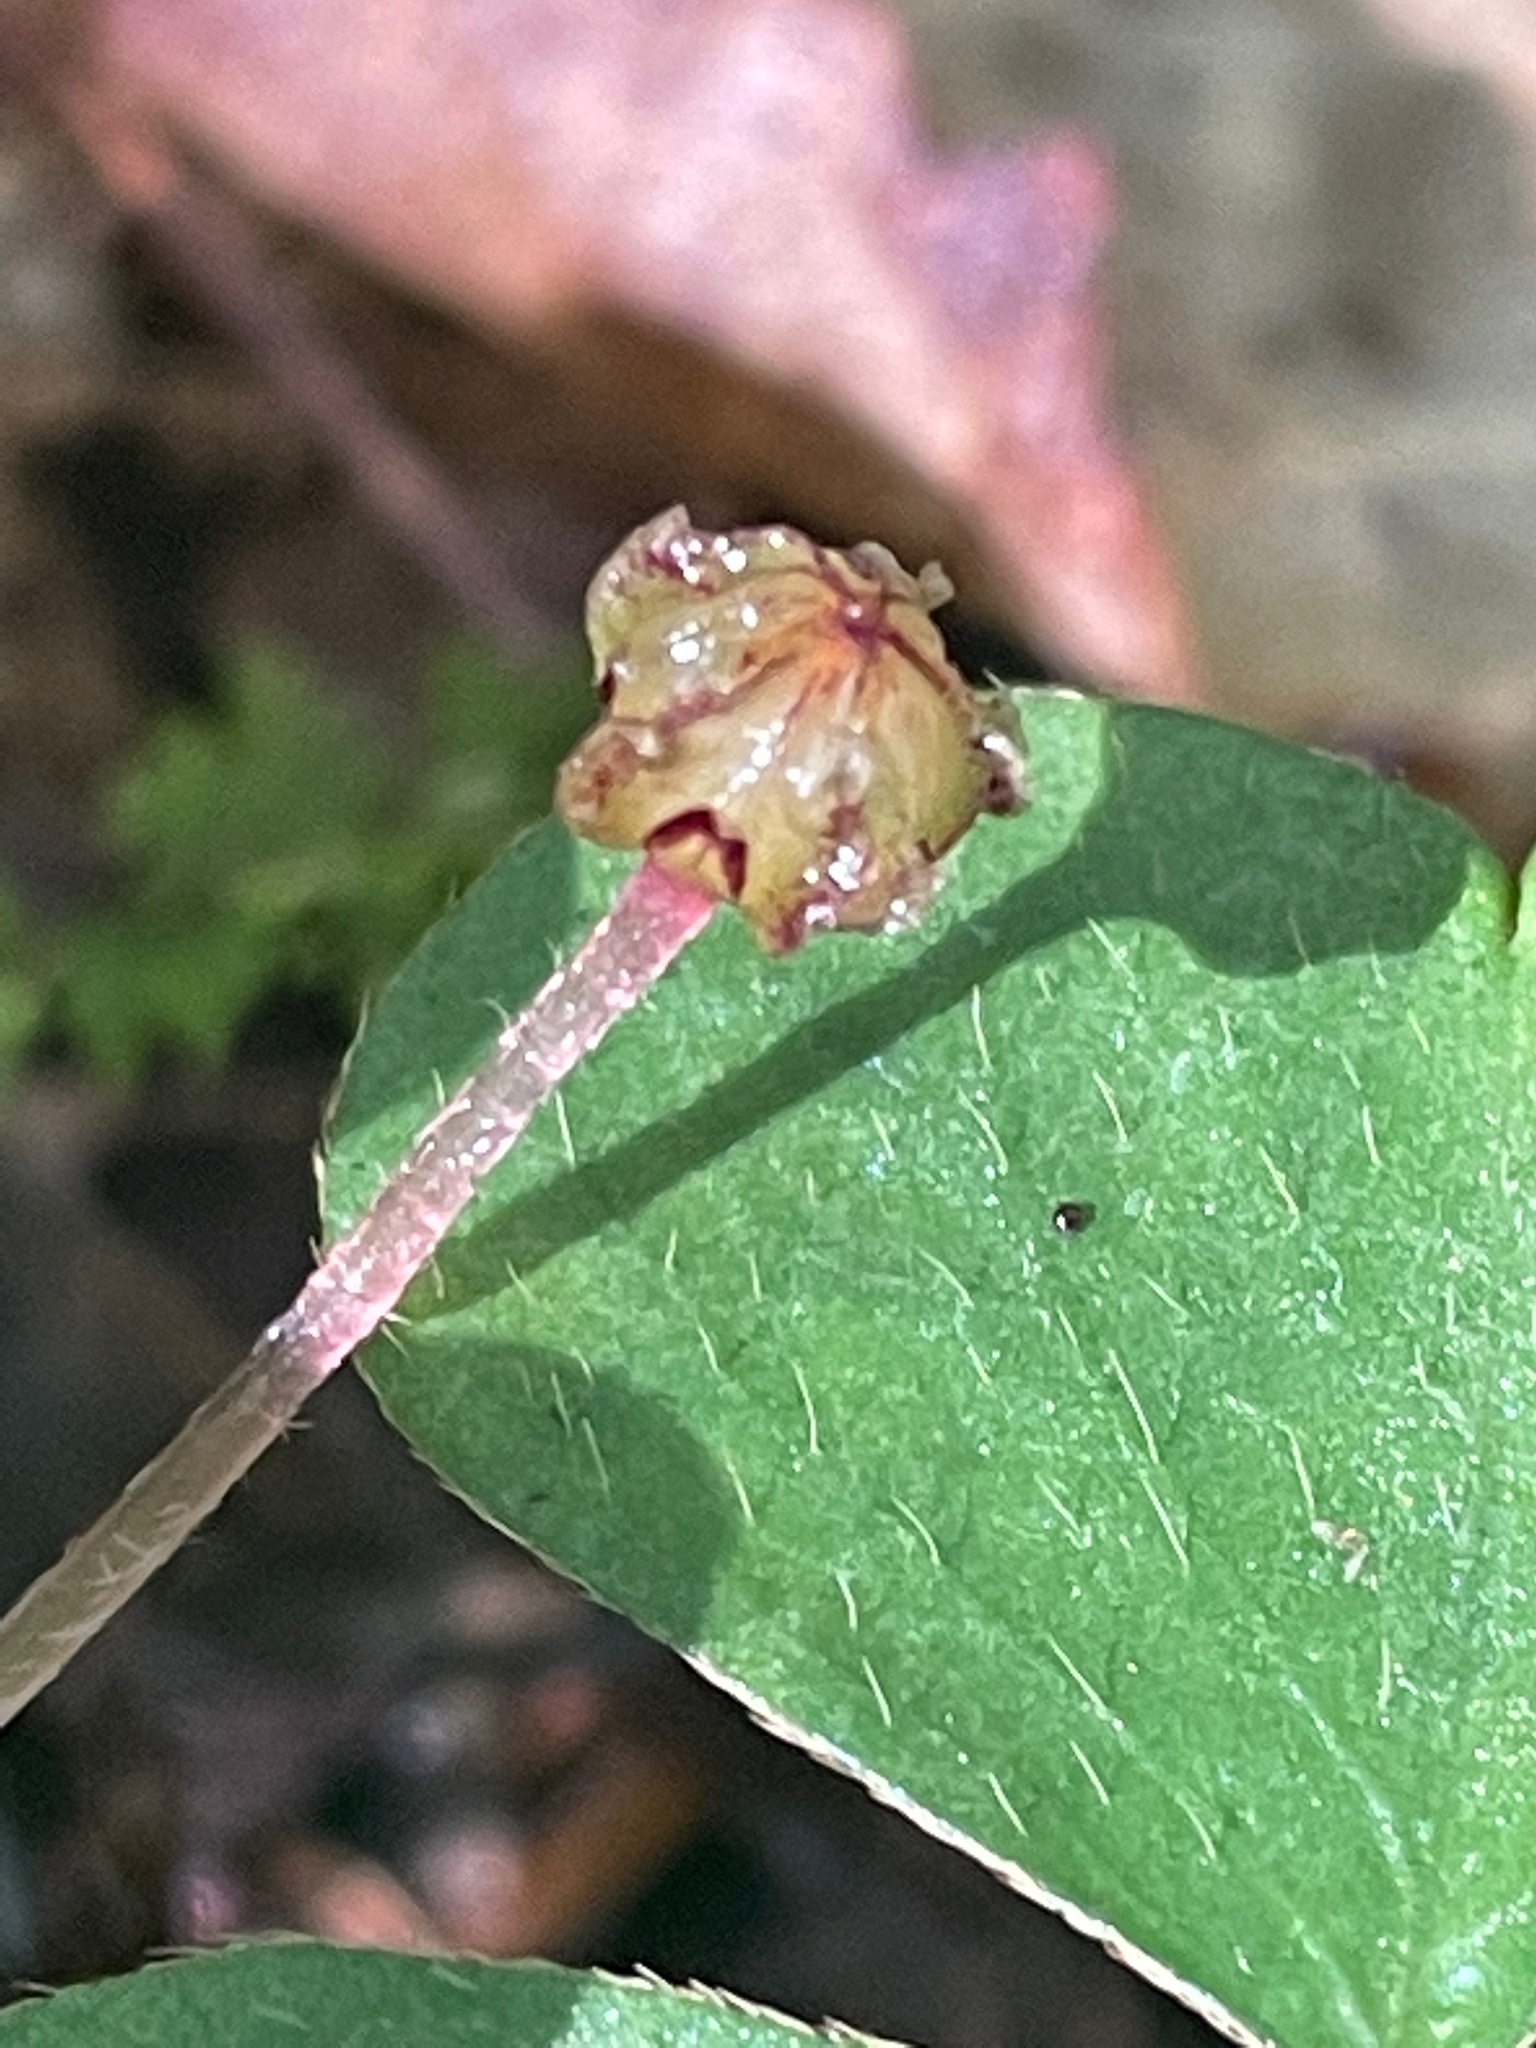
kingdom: Plantae
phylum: Tracheophyta
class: Magnoliopsida
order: Oxalidales
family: Oxalidaceae
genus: Oxalis
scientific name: Oxalis montana
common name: American wood-sorrel
